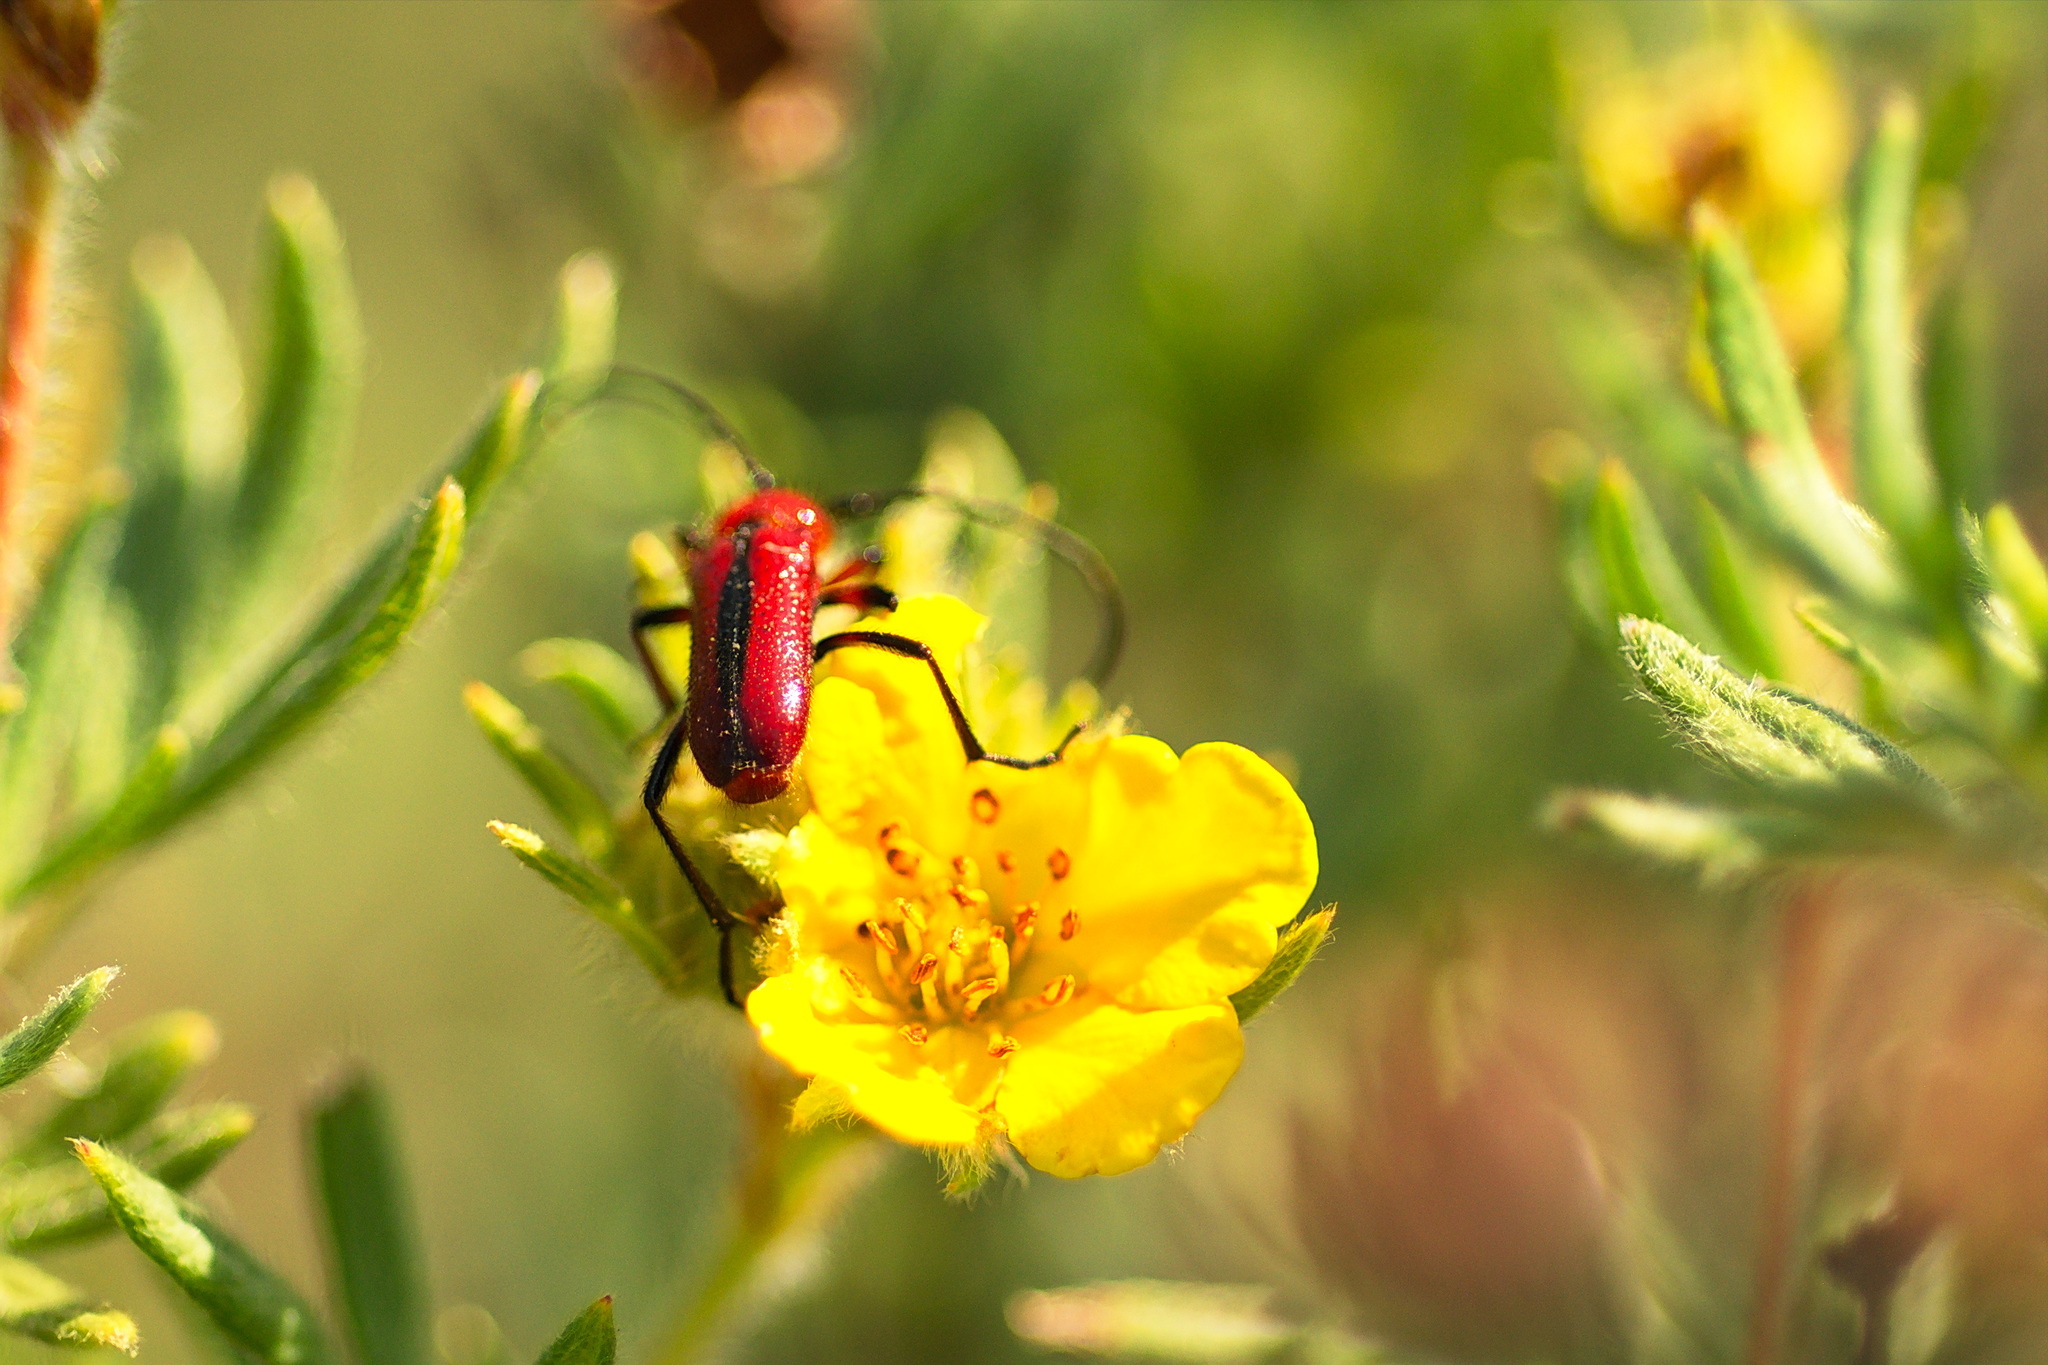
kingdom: Animalia
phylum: Arthropoda
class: Insecta
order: Coleoptera
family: Cerambycidae
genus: Batyle
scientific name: Batyle suturalis
